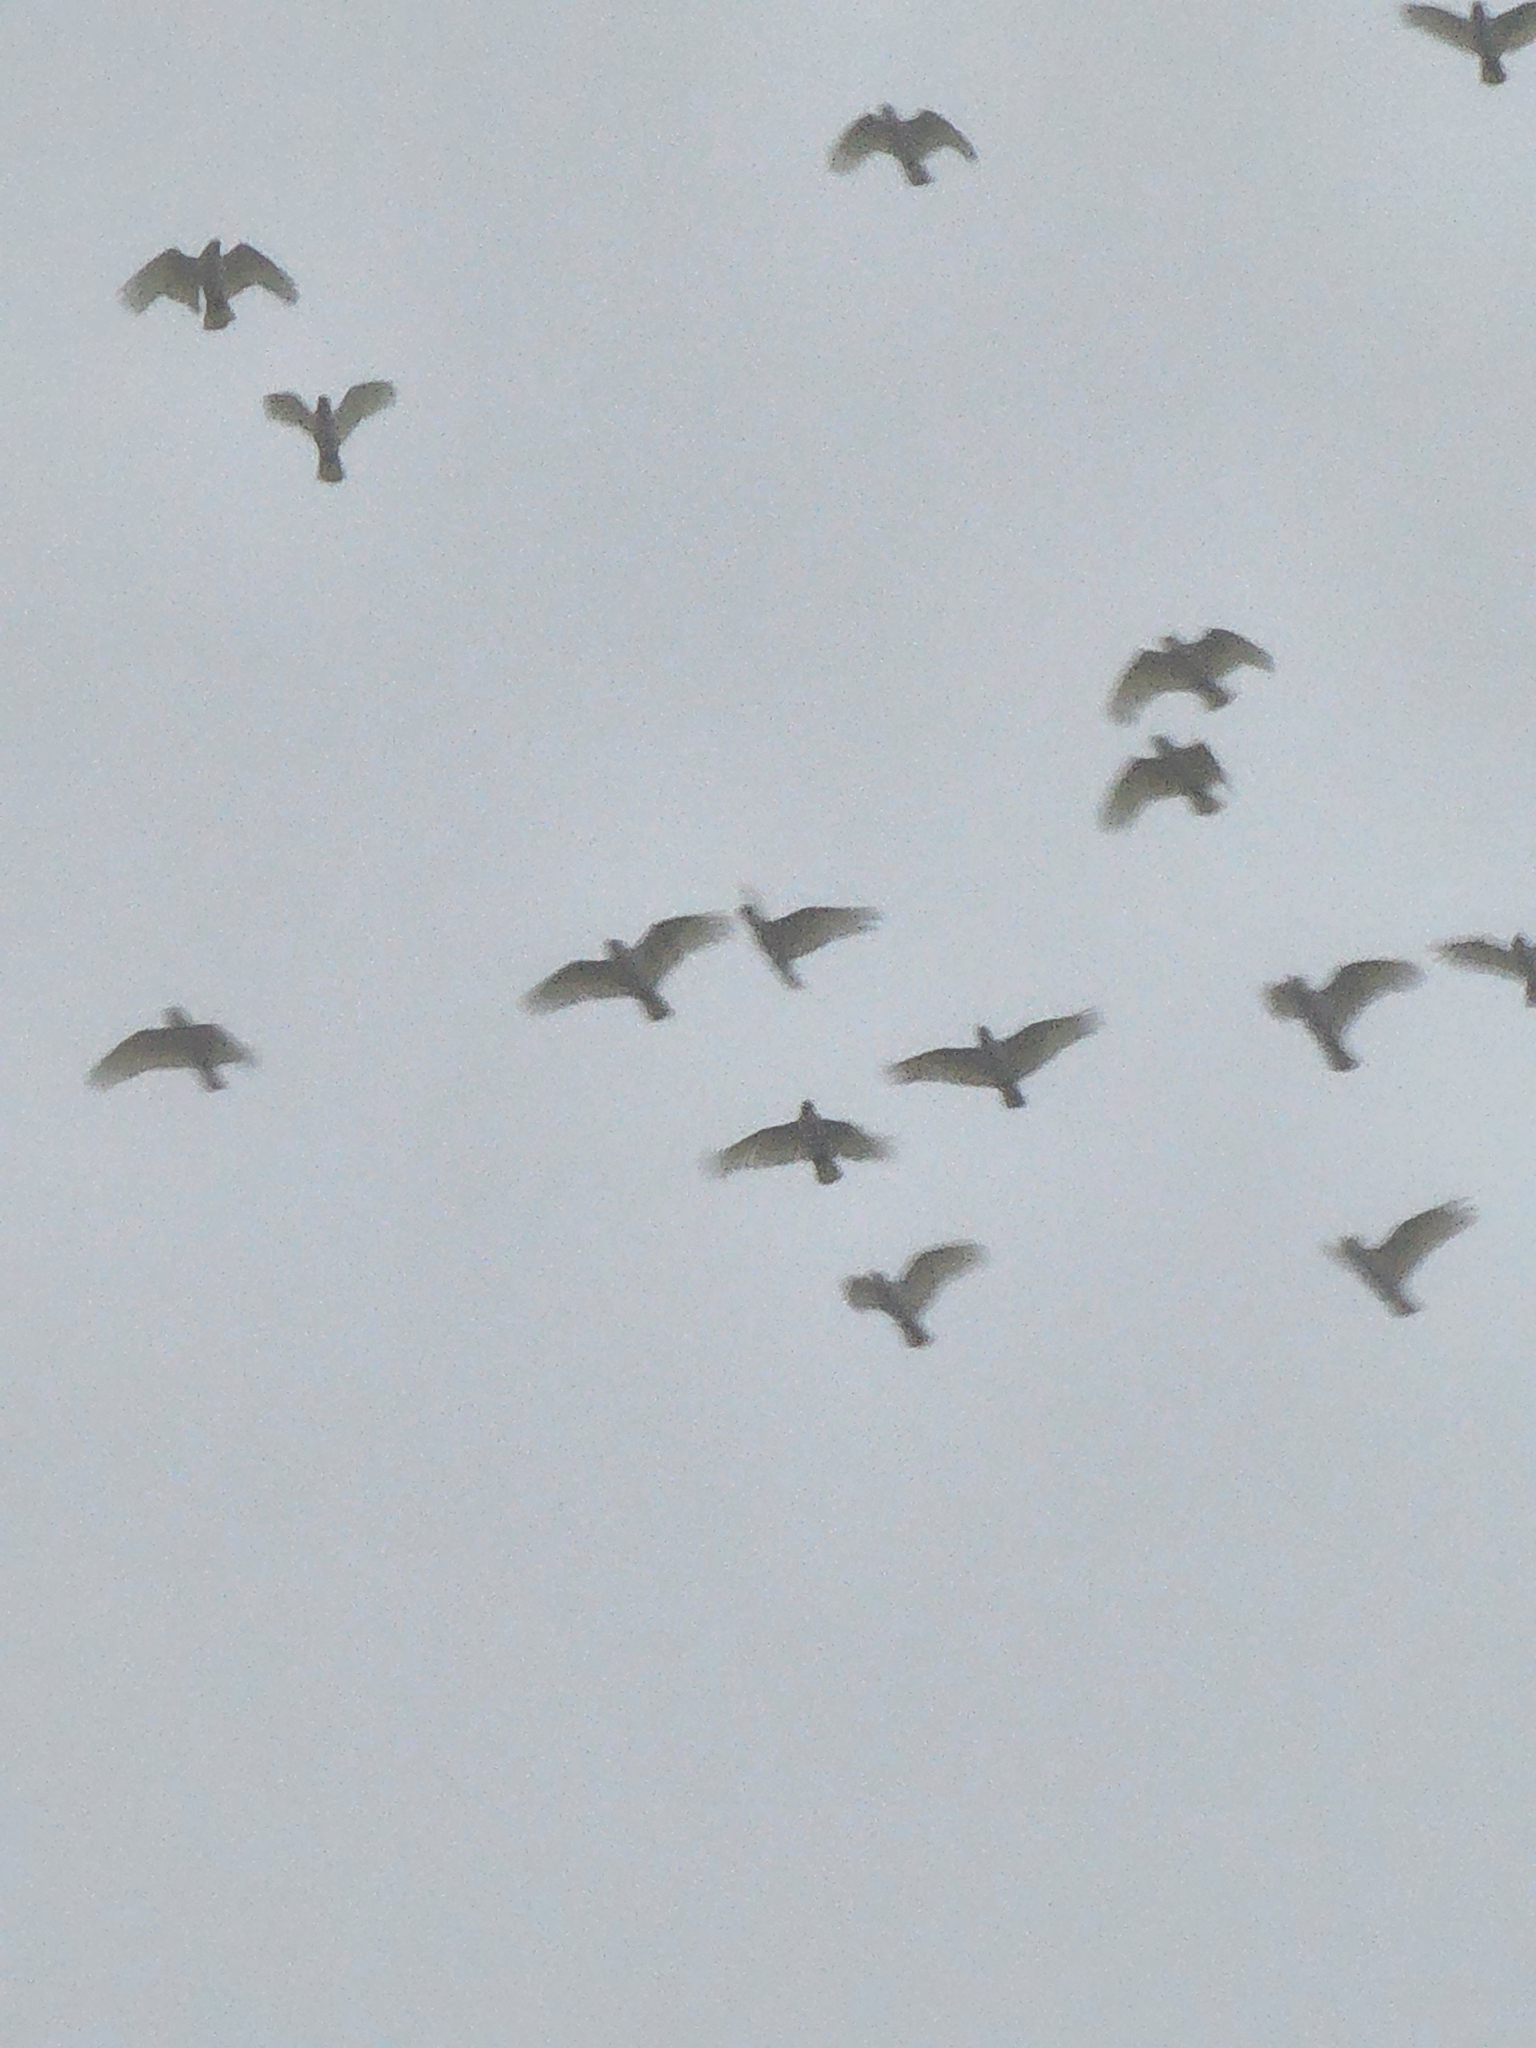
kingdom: Animalia
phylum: Chordata
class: Aves
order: Psittaciformes
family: Psittacidae
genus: Cacatua
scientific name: Cacatua sanguinea
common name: Little corella
